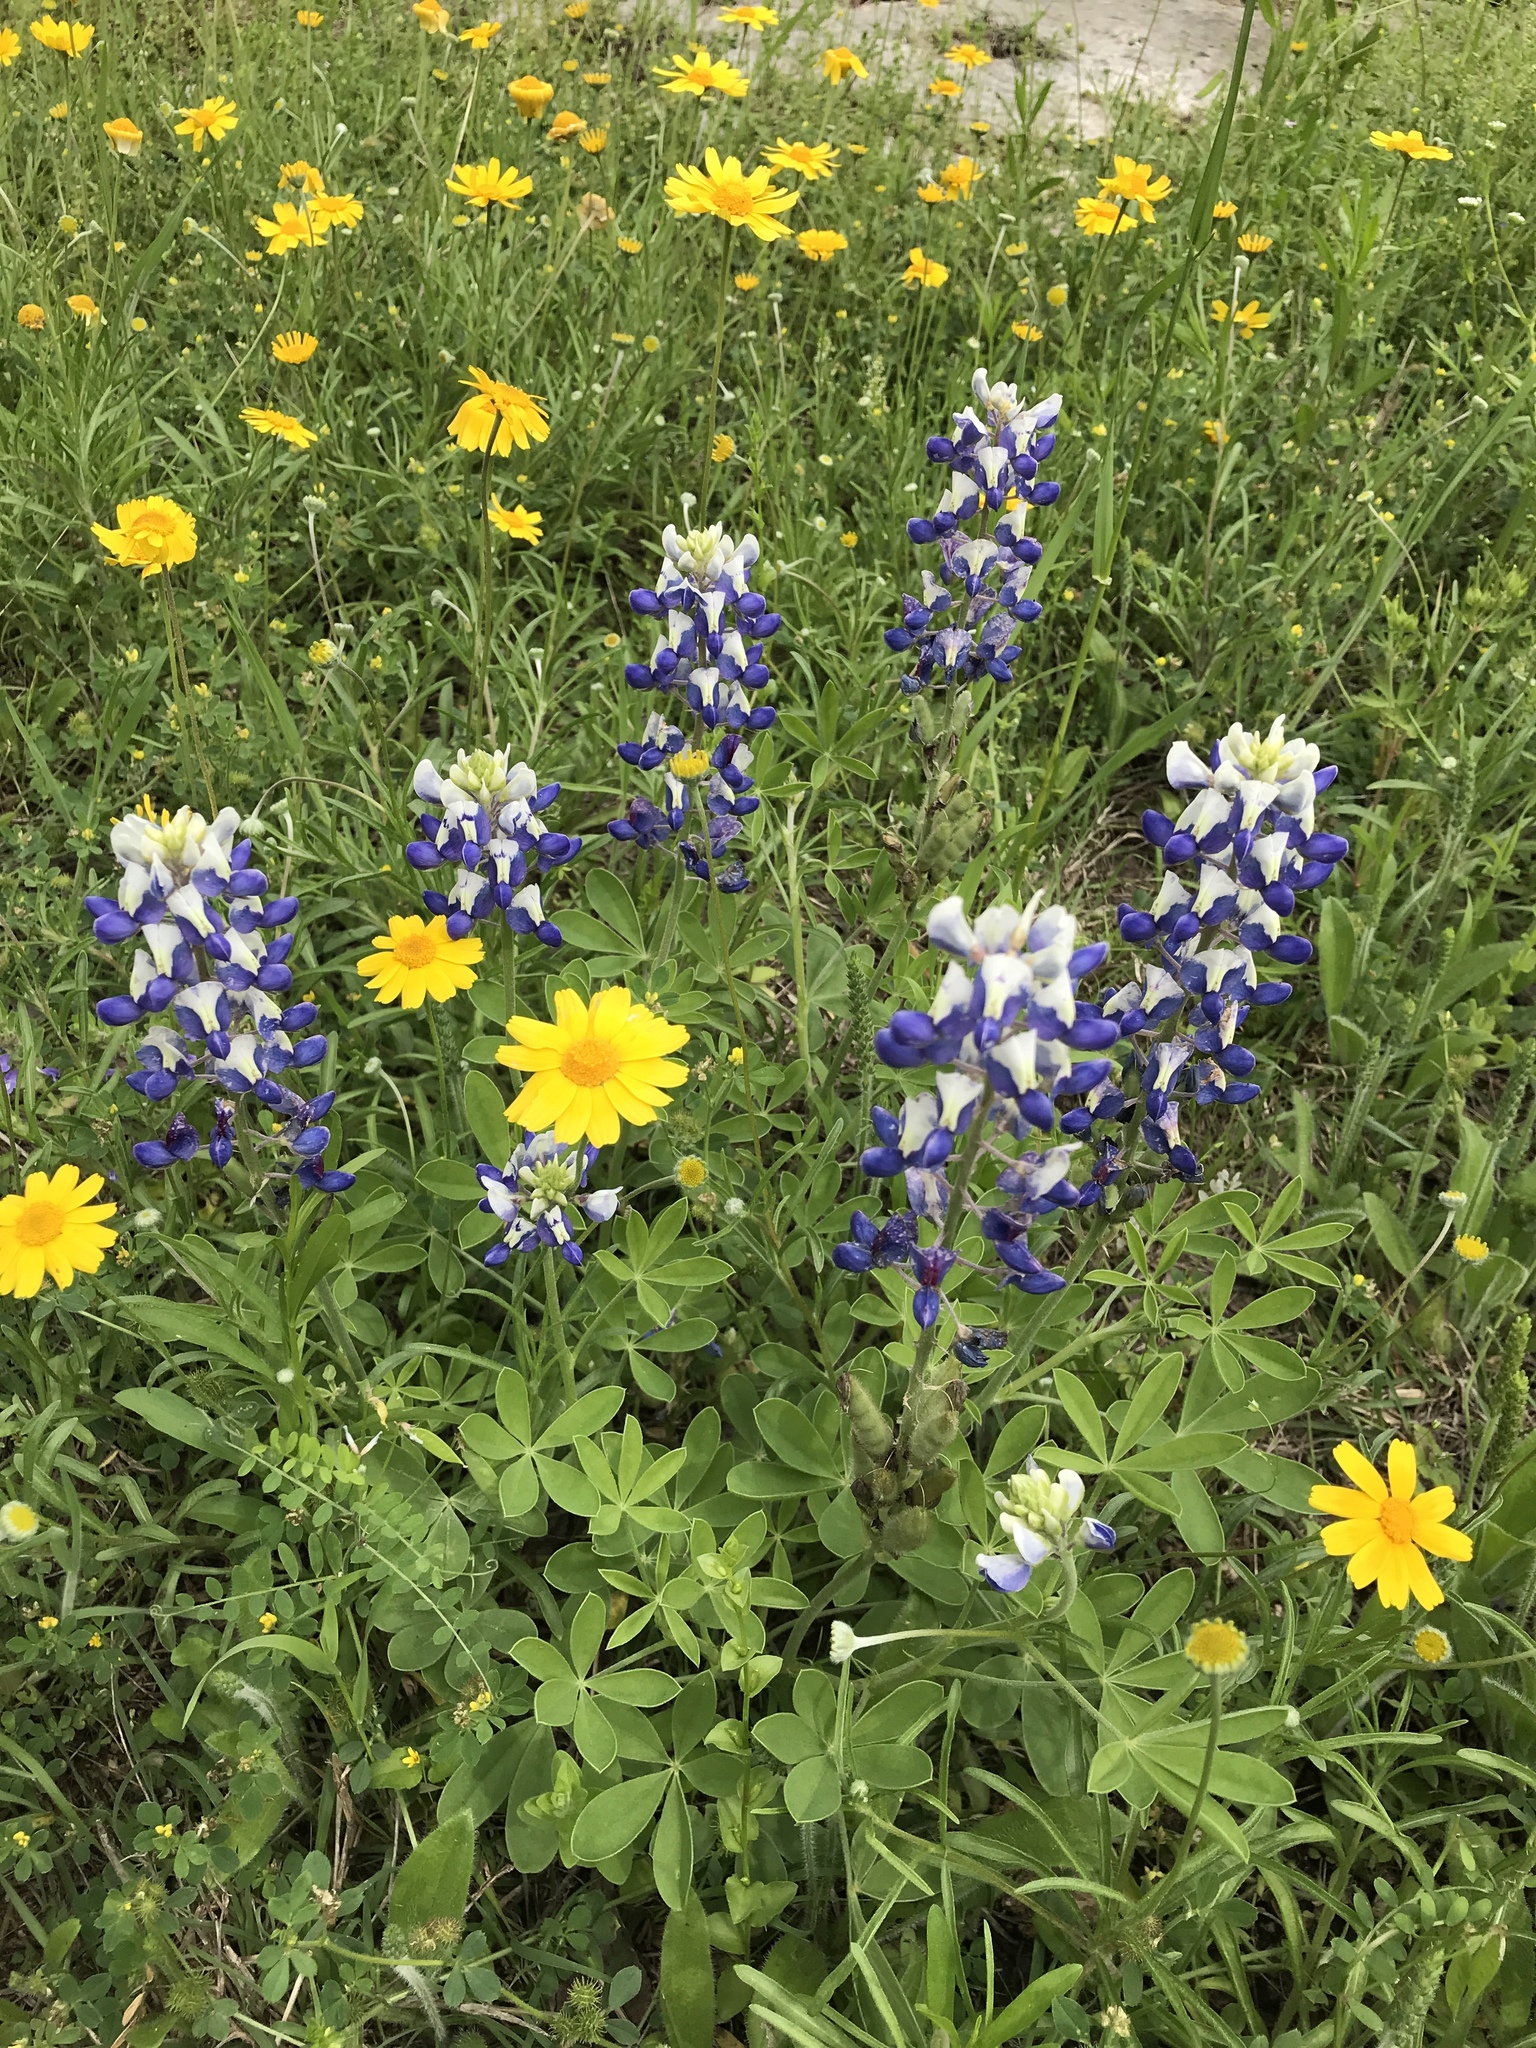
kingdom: Plantae
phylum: Tracheophyta
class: Magnoliopsida
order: Fabales
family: Fabaceae
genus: Lupinus
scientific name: Lupinus texensis
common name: Texas bluebonnet
